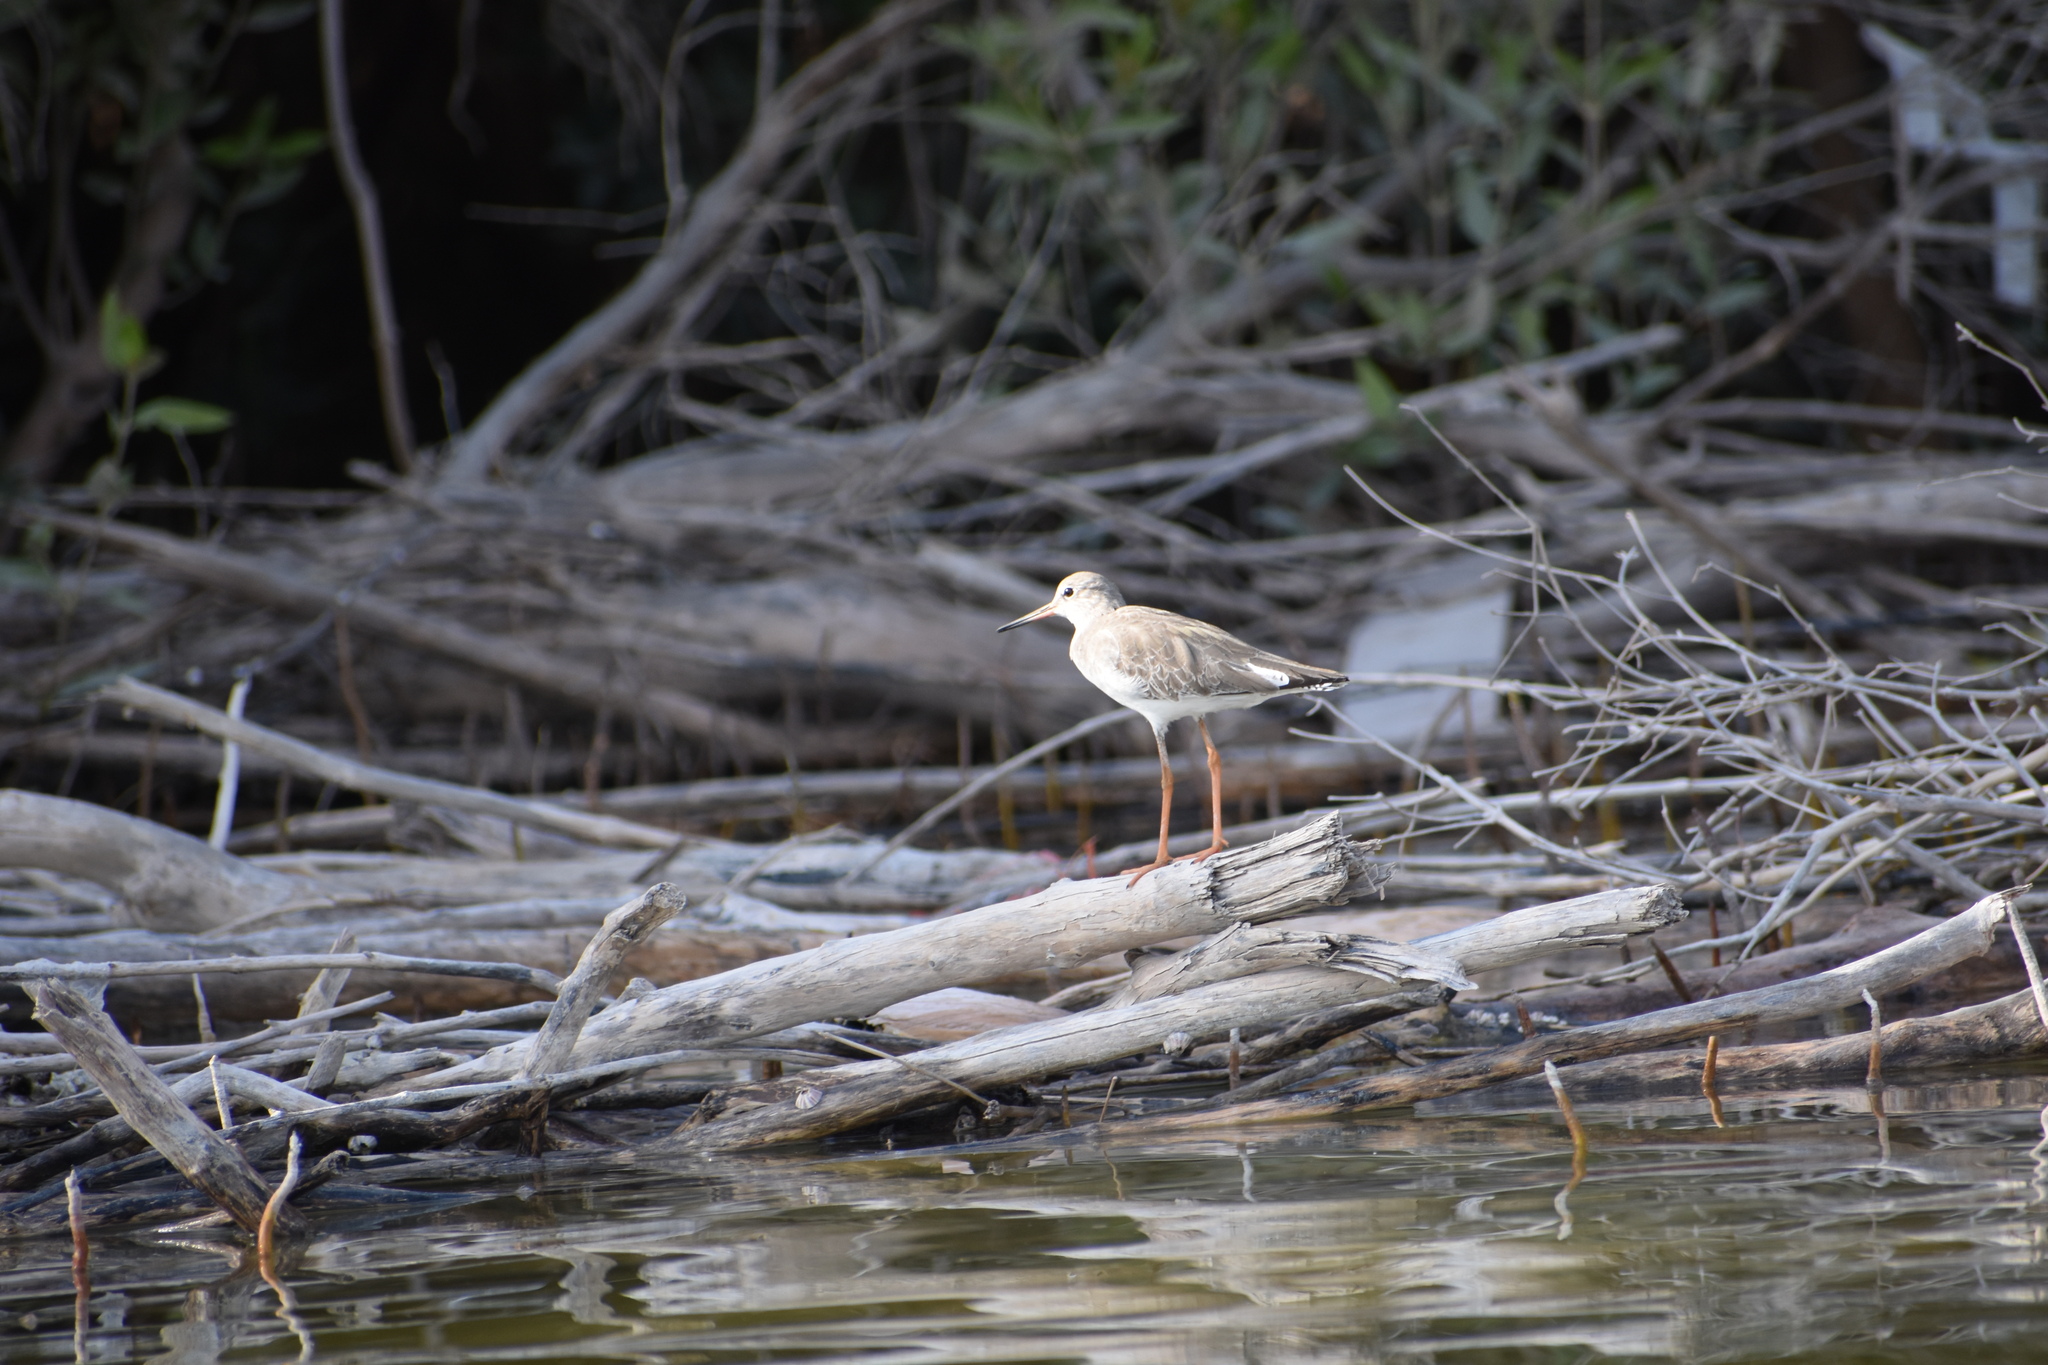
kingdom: Animalia
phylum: Chordata
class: Aves
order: Charadriiformes
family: Scolopacidae
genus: Tringa
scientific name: Tringa totanus
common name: Common redshank
